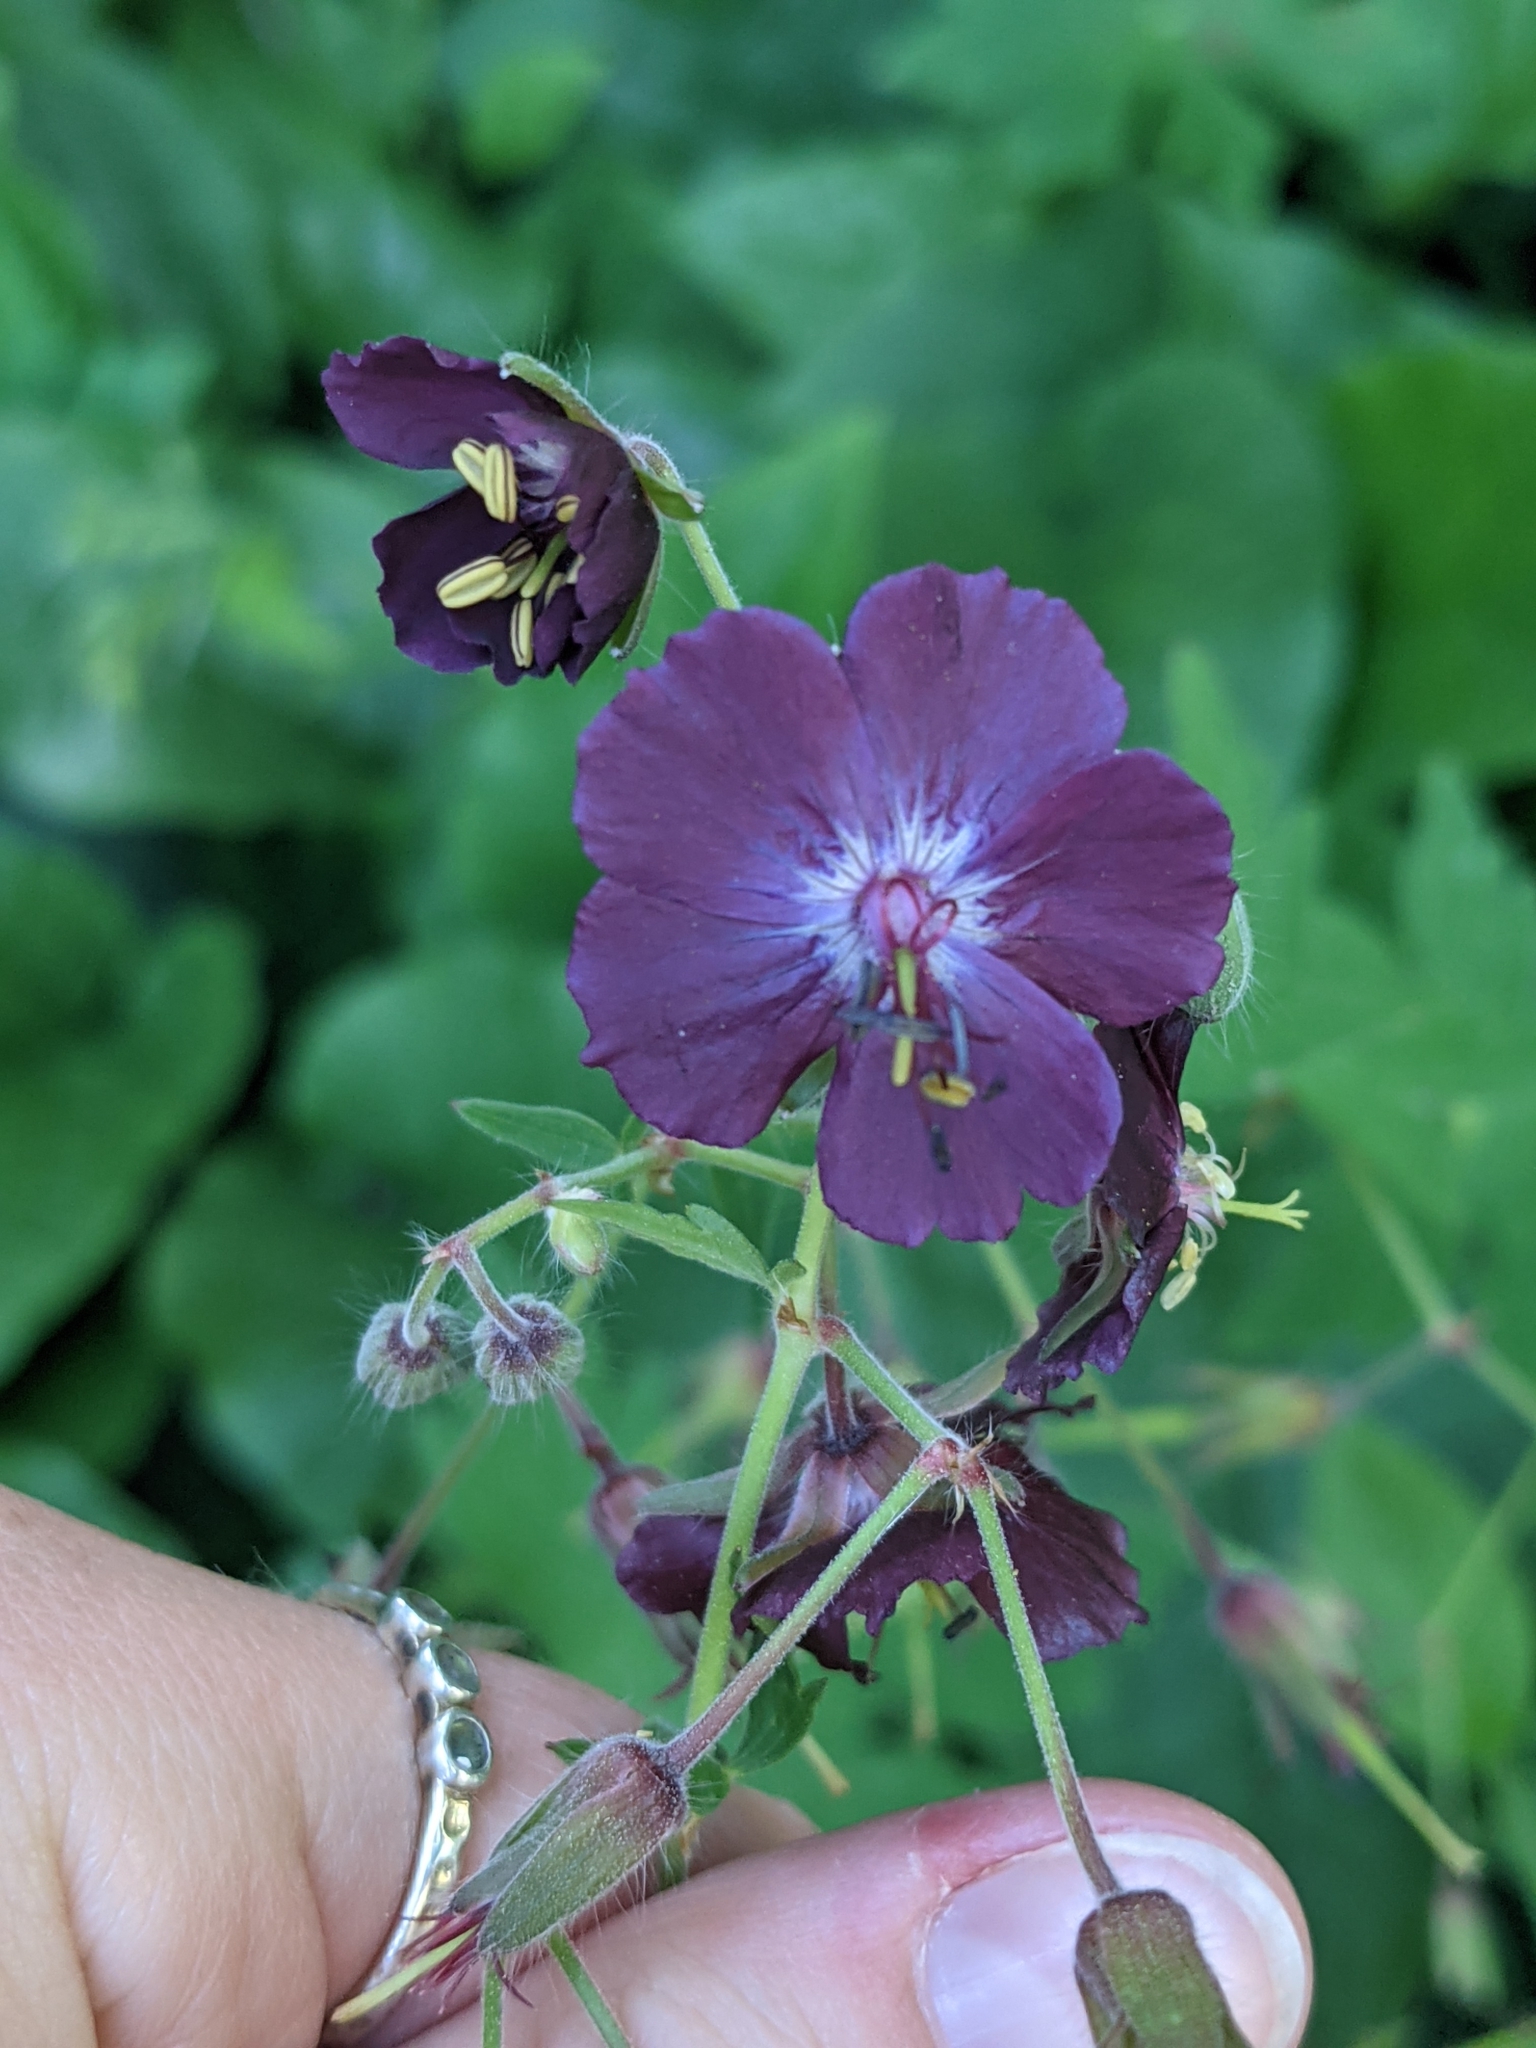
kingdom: Plantae
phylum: Tracheophyta
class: Magnoliopsida
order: Geraniales
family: Geraniaceae
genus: Geranium
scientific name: Geranium phaeum
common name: Dusky crane's-bill
